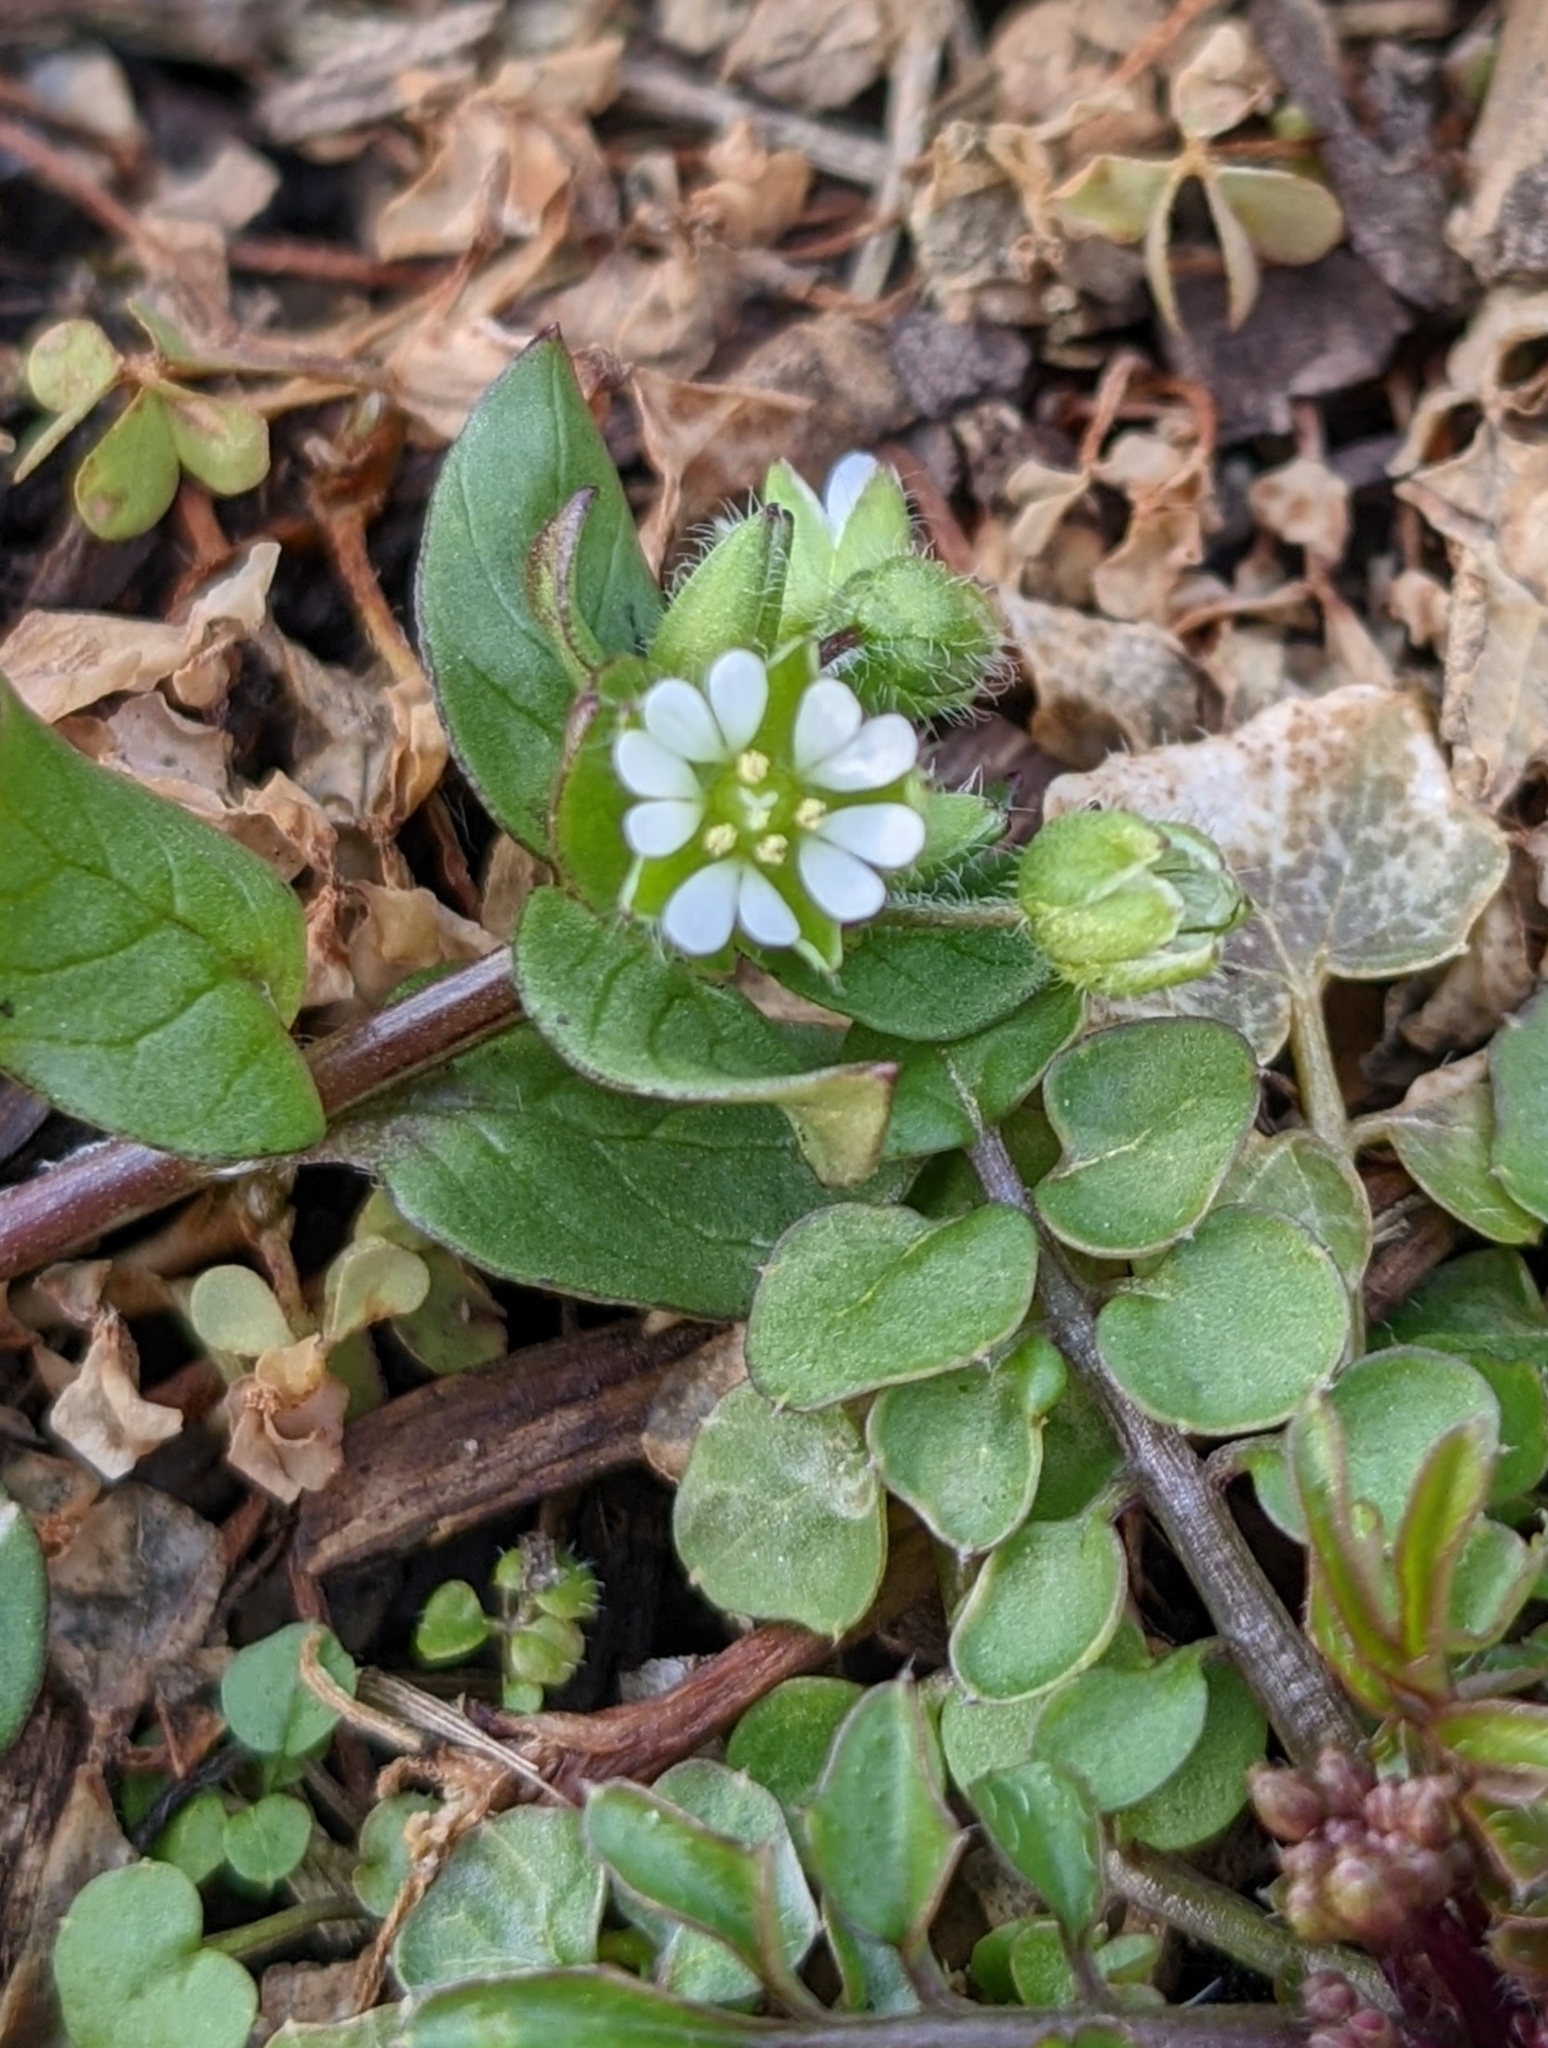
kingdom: Plantae
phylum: Tracheophyta
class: Magnoliopsida
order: Caryophyllales
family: Caryophyllaceae
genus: Stellaria
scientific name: Stellaria media
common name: Common chickweed
